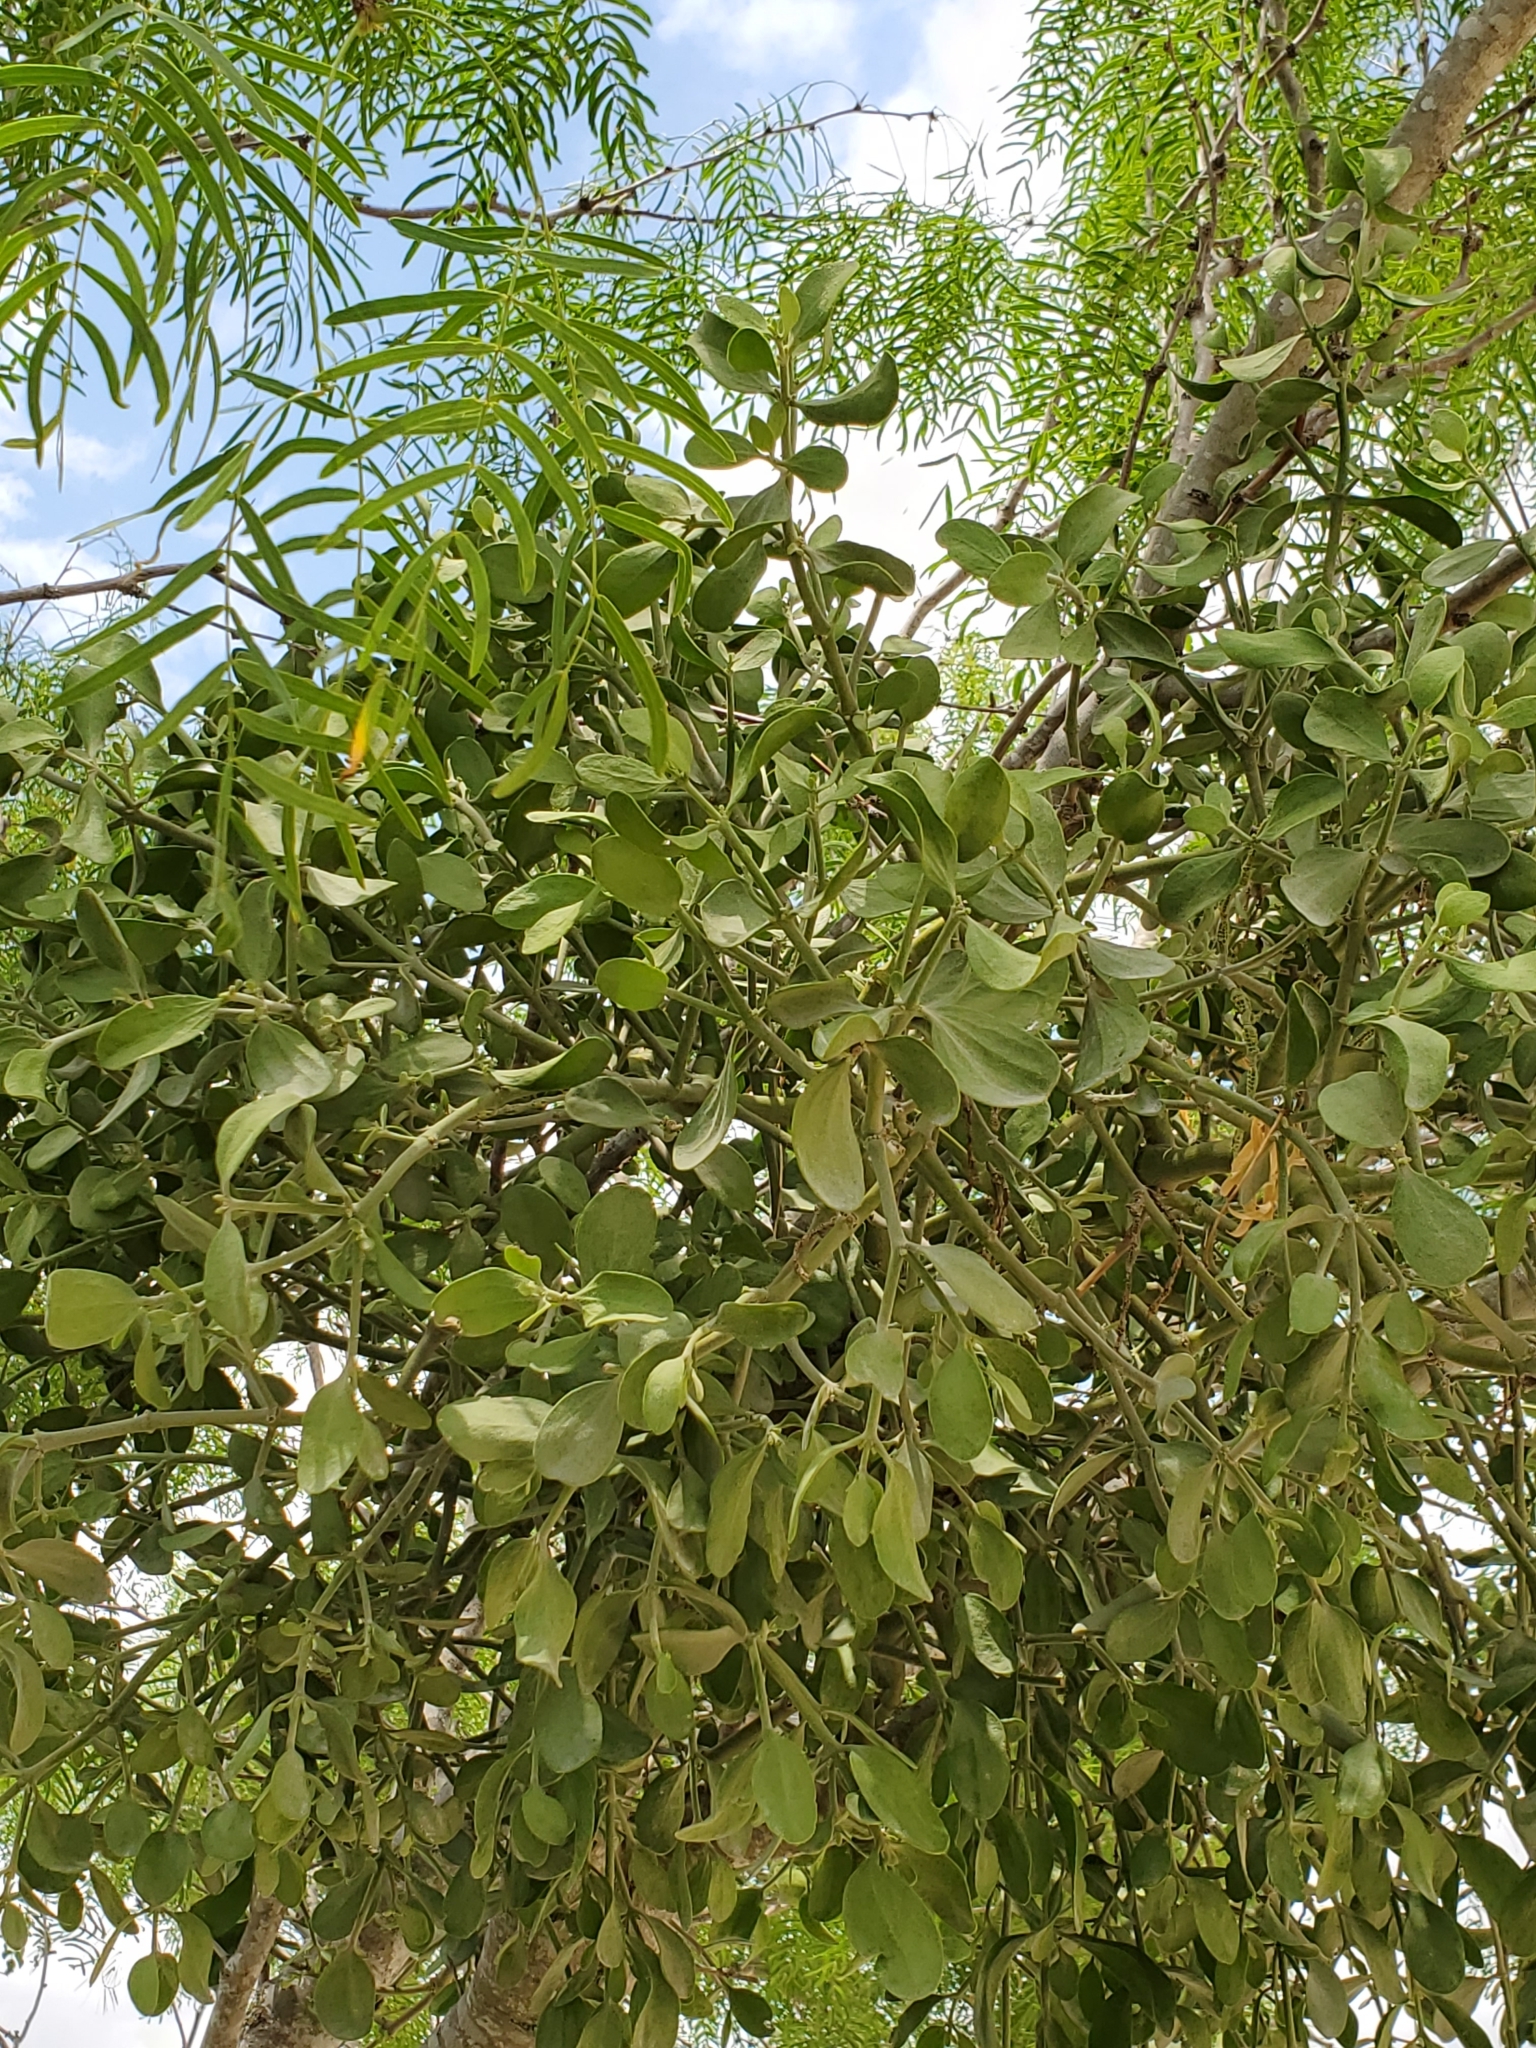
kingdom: Plantae
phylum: Tracheophyta
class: Magnoliopsida
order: Santalales
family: Viscaceae
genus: Phoradendron
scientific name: Phoradendron leucarpum
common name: Pacific mistletoe
